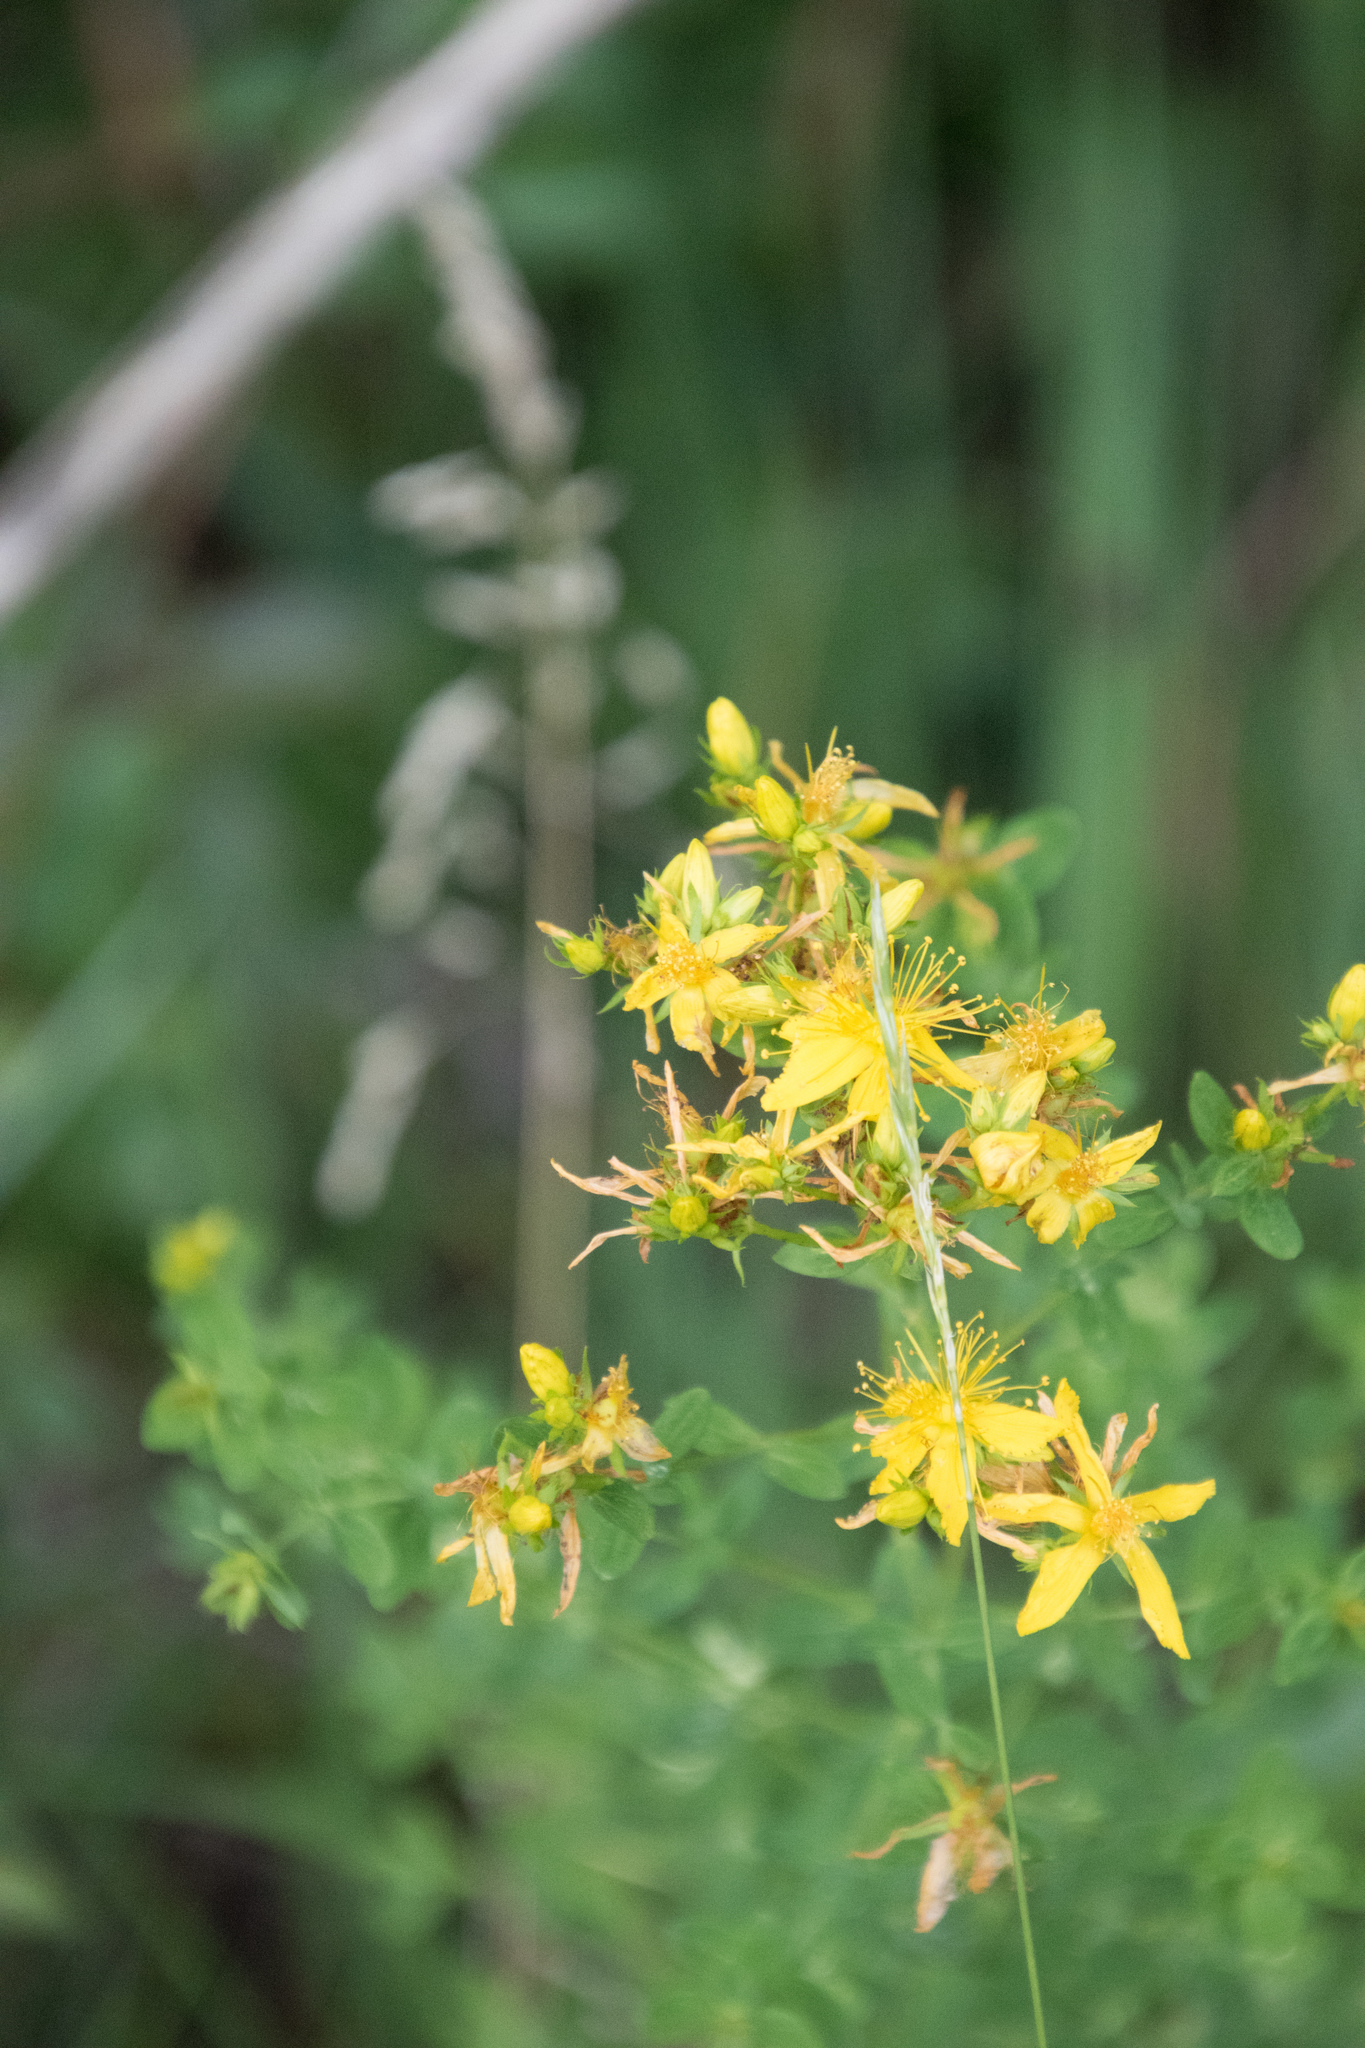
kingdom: Plantae
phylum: Tracheophyta
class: Magnoliopsida
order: Malpighiales
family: Hypericaceae
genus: Hypericum
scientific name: Hypericum perforatum
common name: Common st. johnswort
